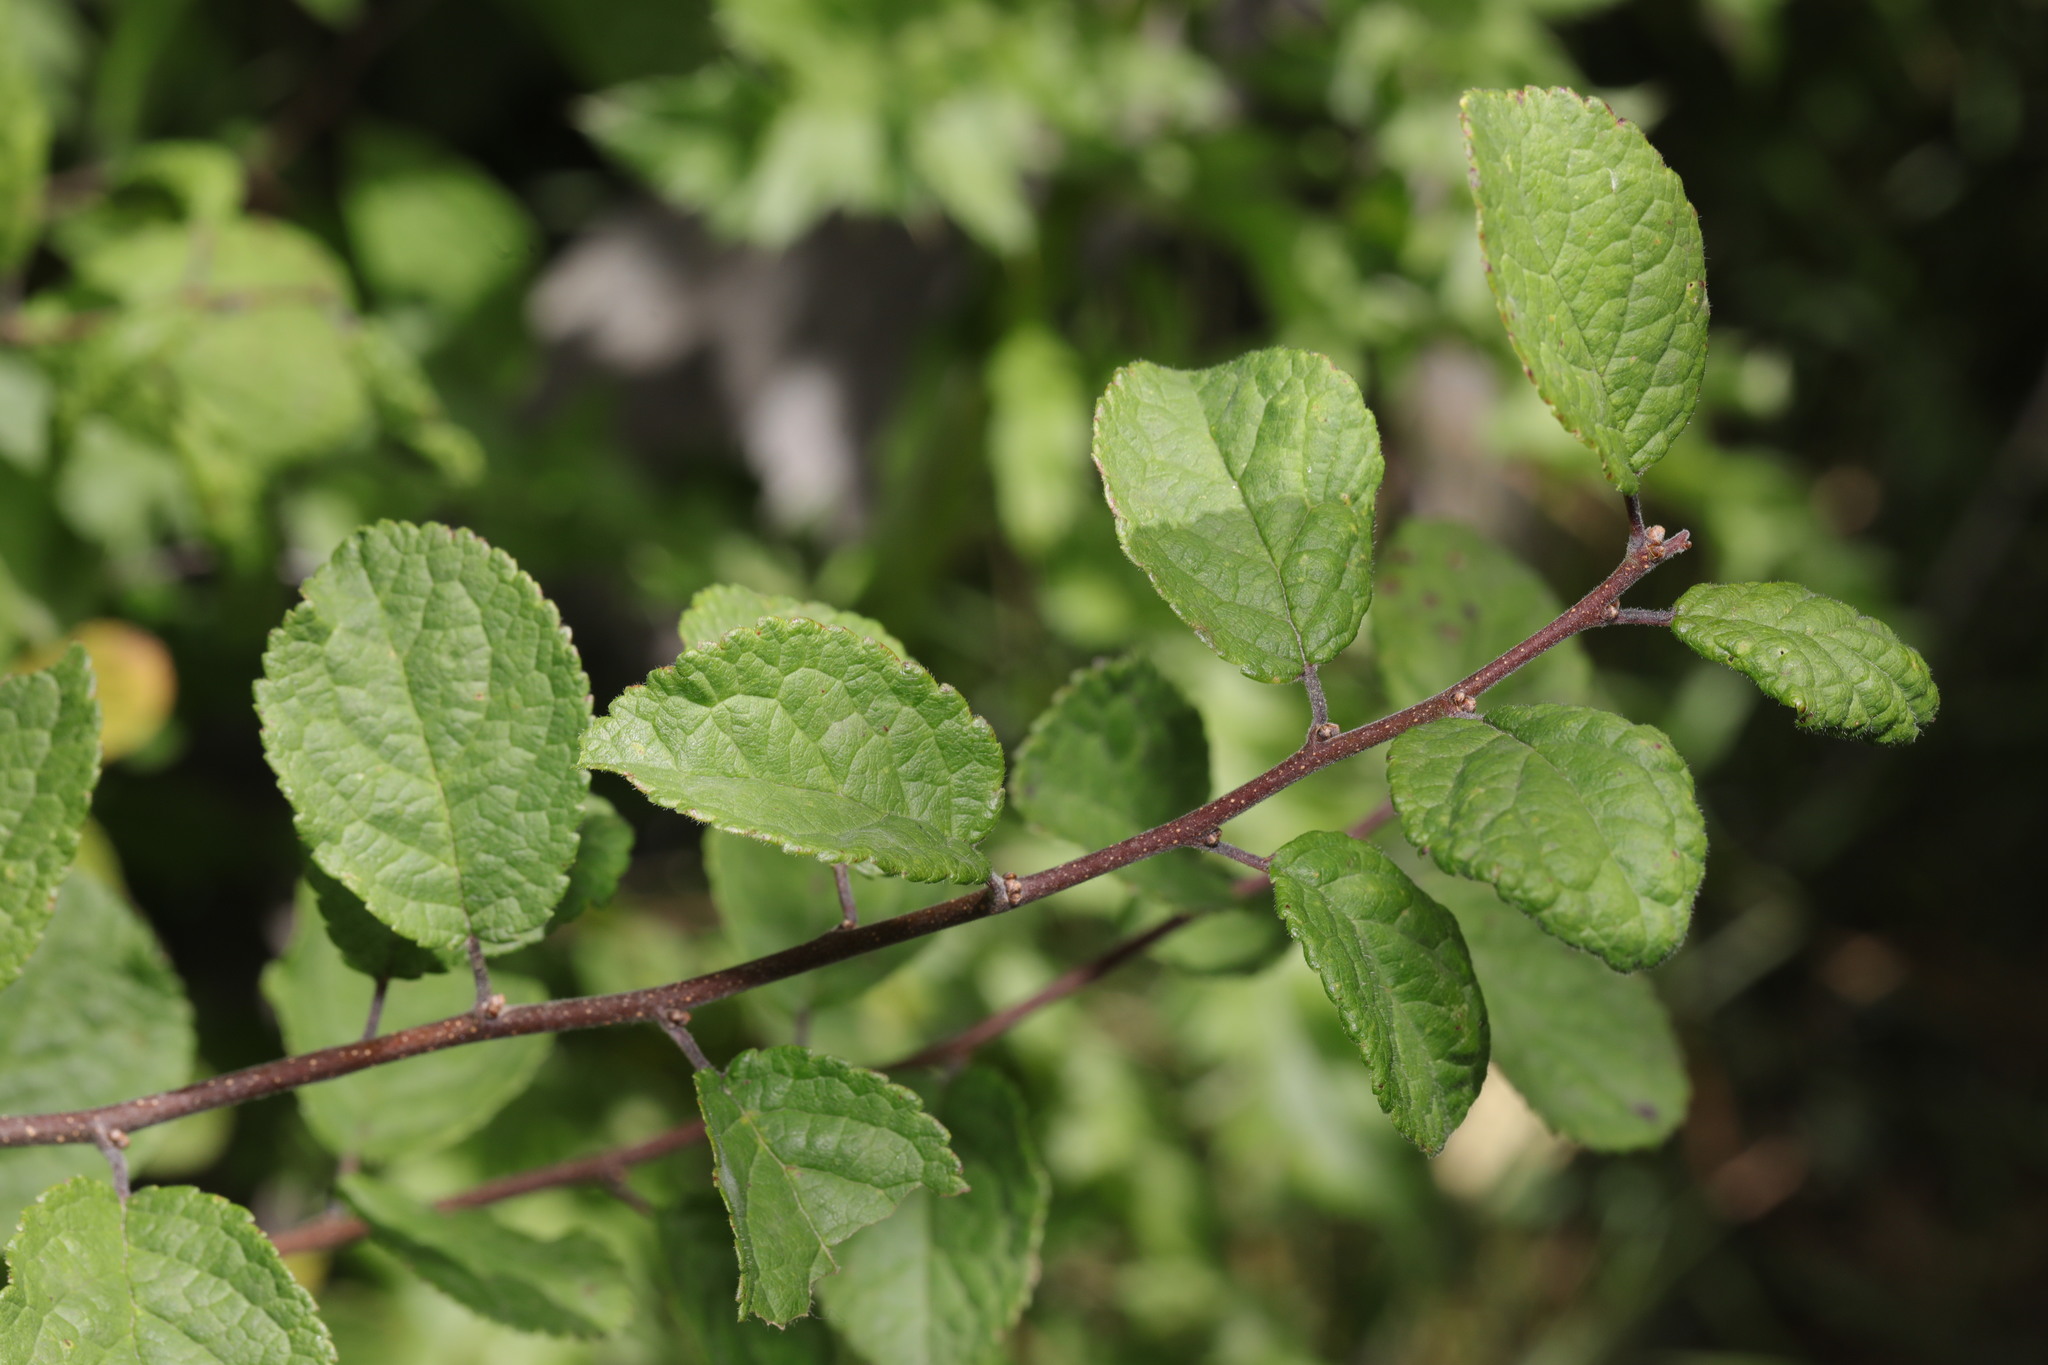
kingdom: Plantae
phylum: Tracheophyta
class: Magnoliopsida
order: Rosales
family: Rosaceae
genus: Prunus
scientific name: Prunus spinosa
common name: Blackthorn
